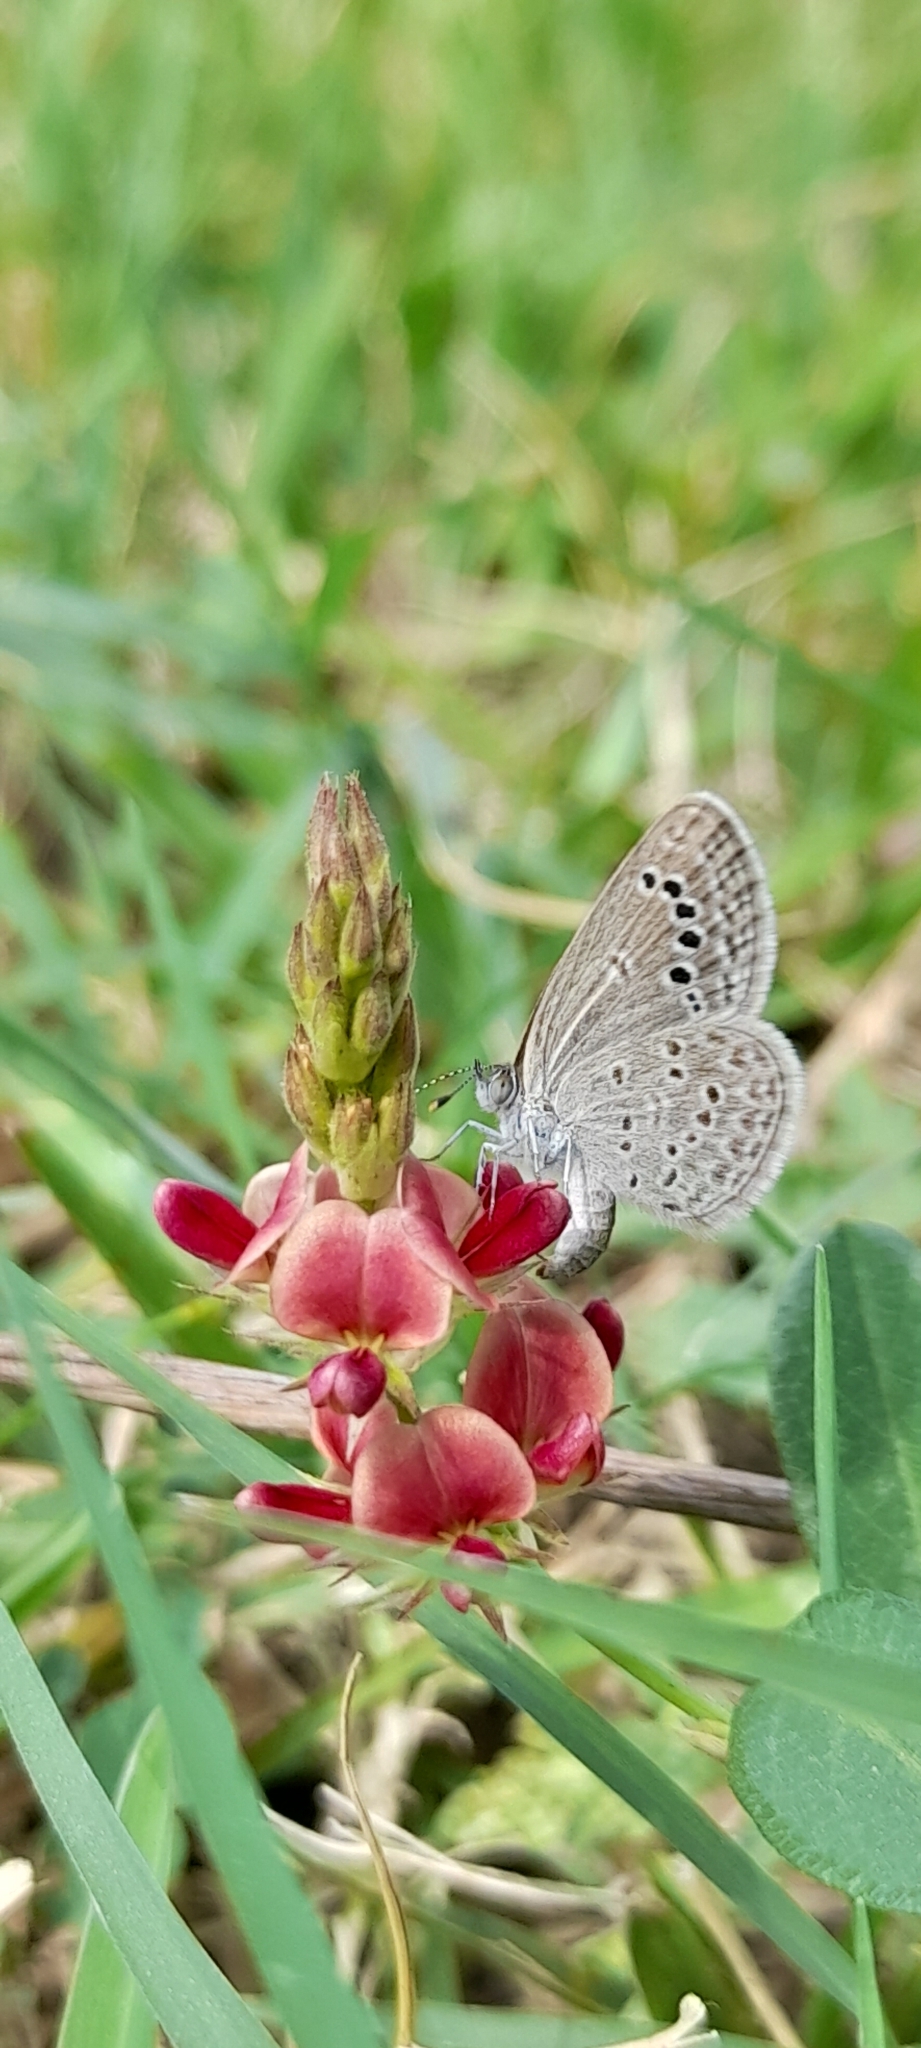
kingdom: Animalia
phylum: Arthropoda
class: Insecta
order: Lepidoptera
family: Lycaenidae
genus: Zizina
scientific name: Zizina otis
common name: Lesser grass blue
